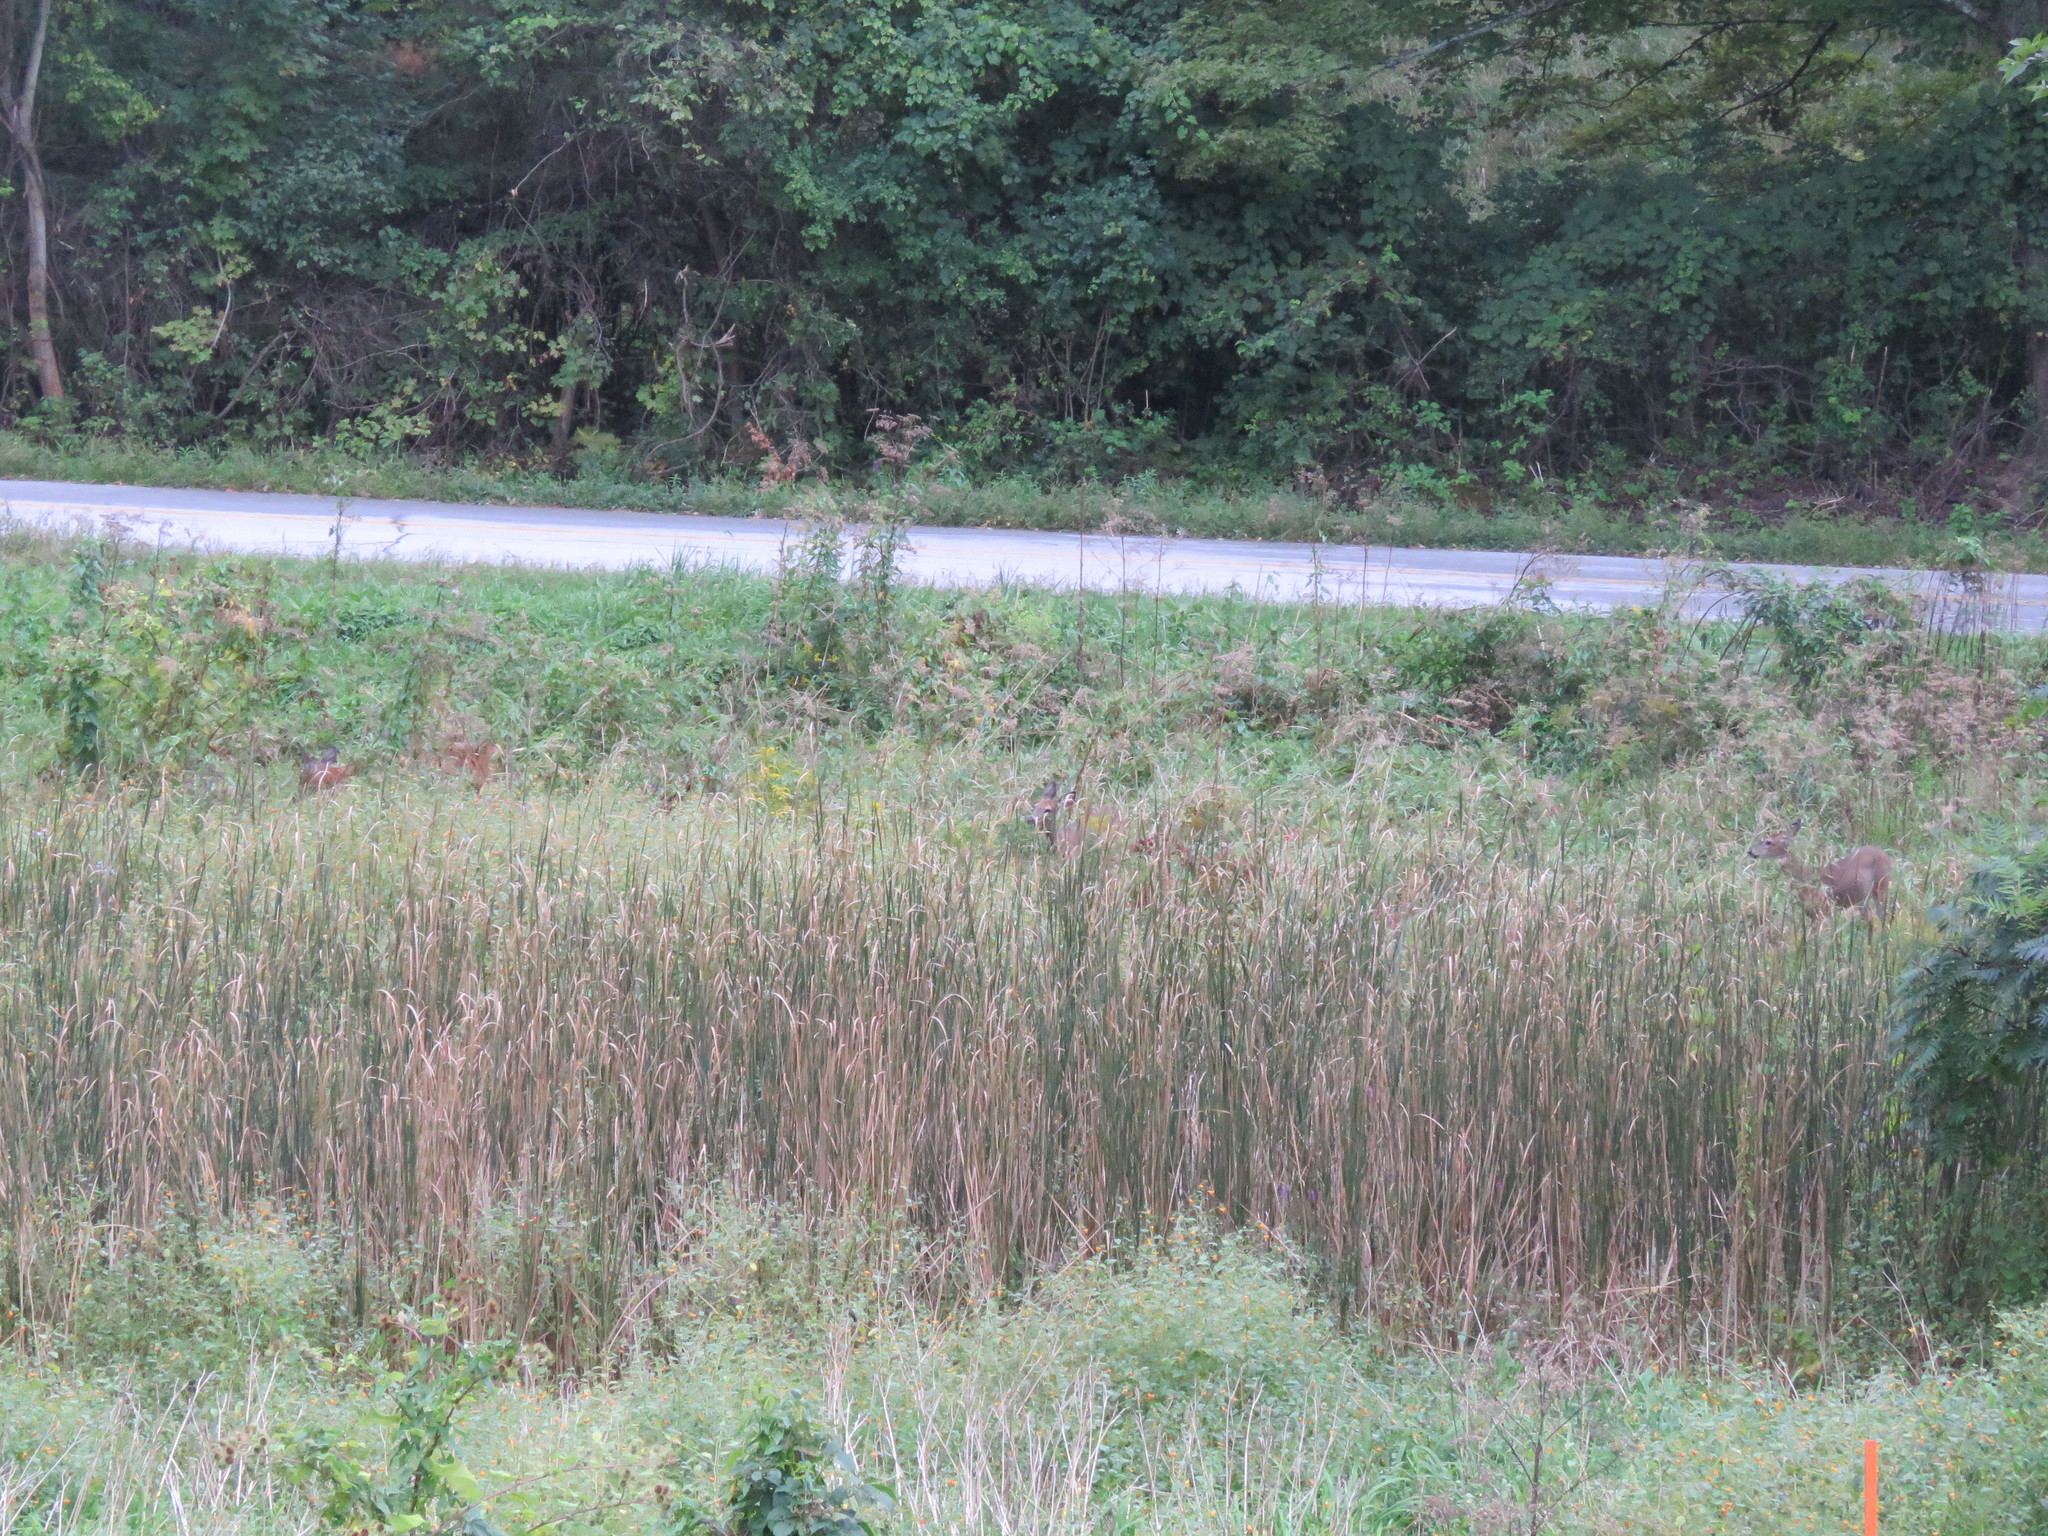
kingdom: Animalia
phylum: Chordata
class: Mammalia
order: Artiodactyla
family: Cervidae
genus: Odocoileus
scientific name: Odocoileus virginianus
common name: White-tailed deer
